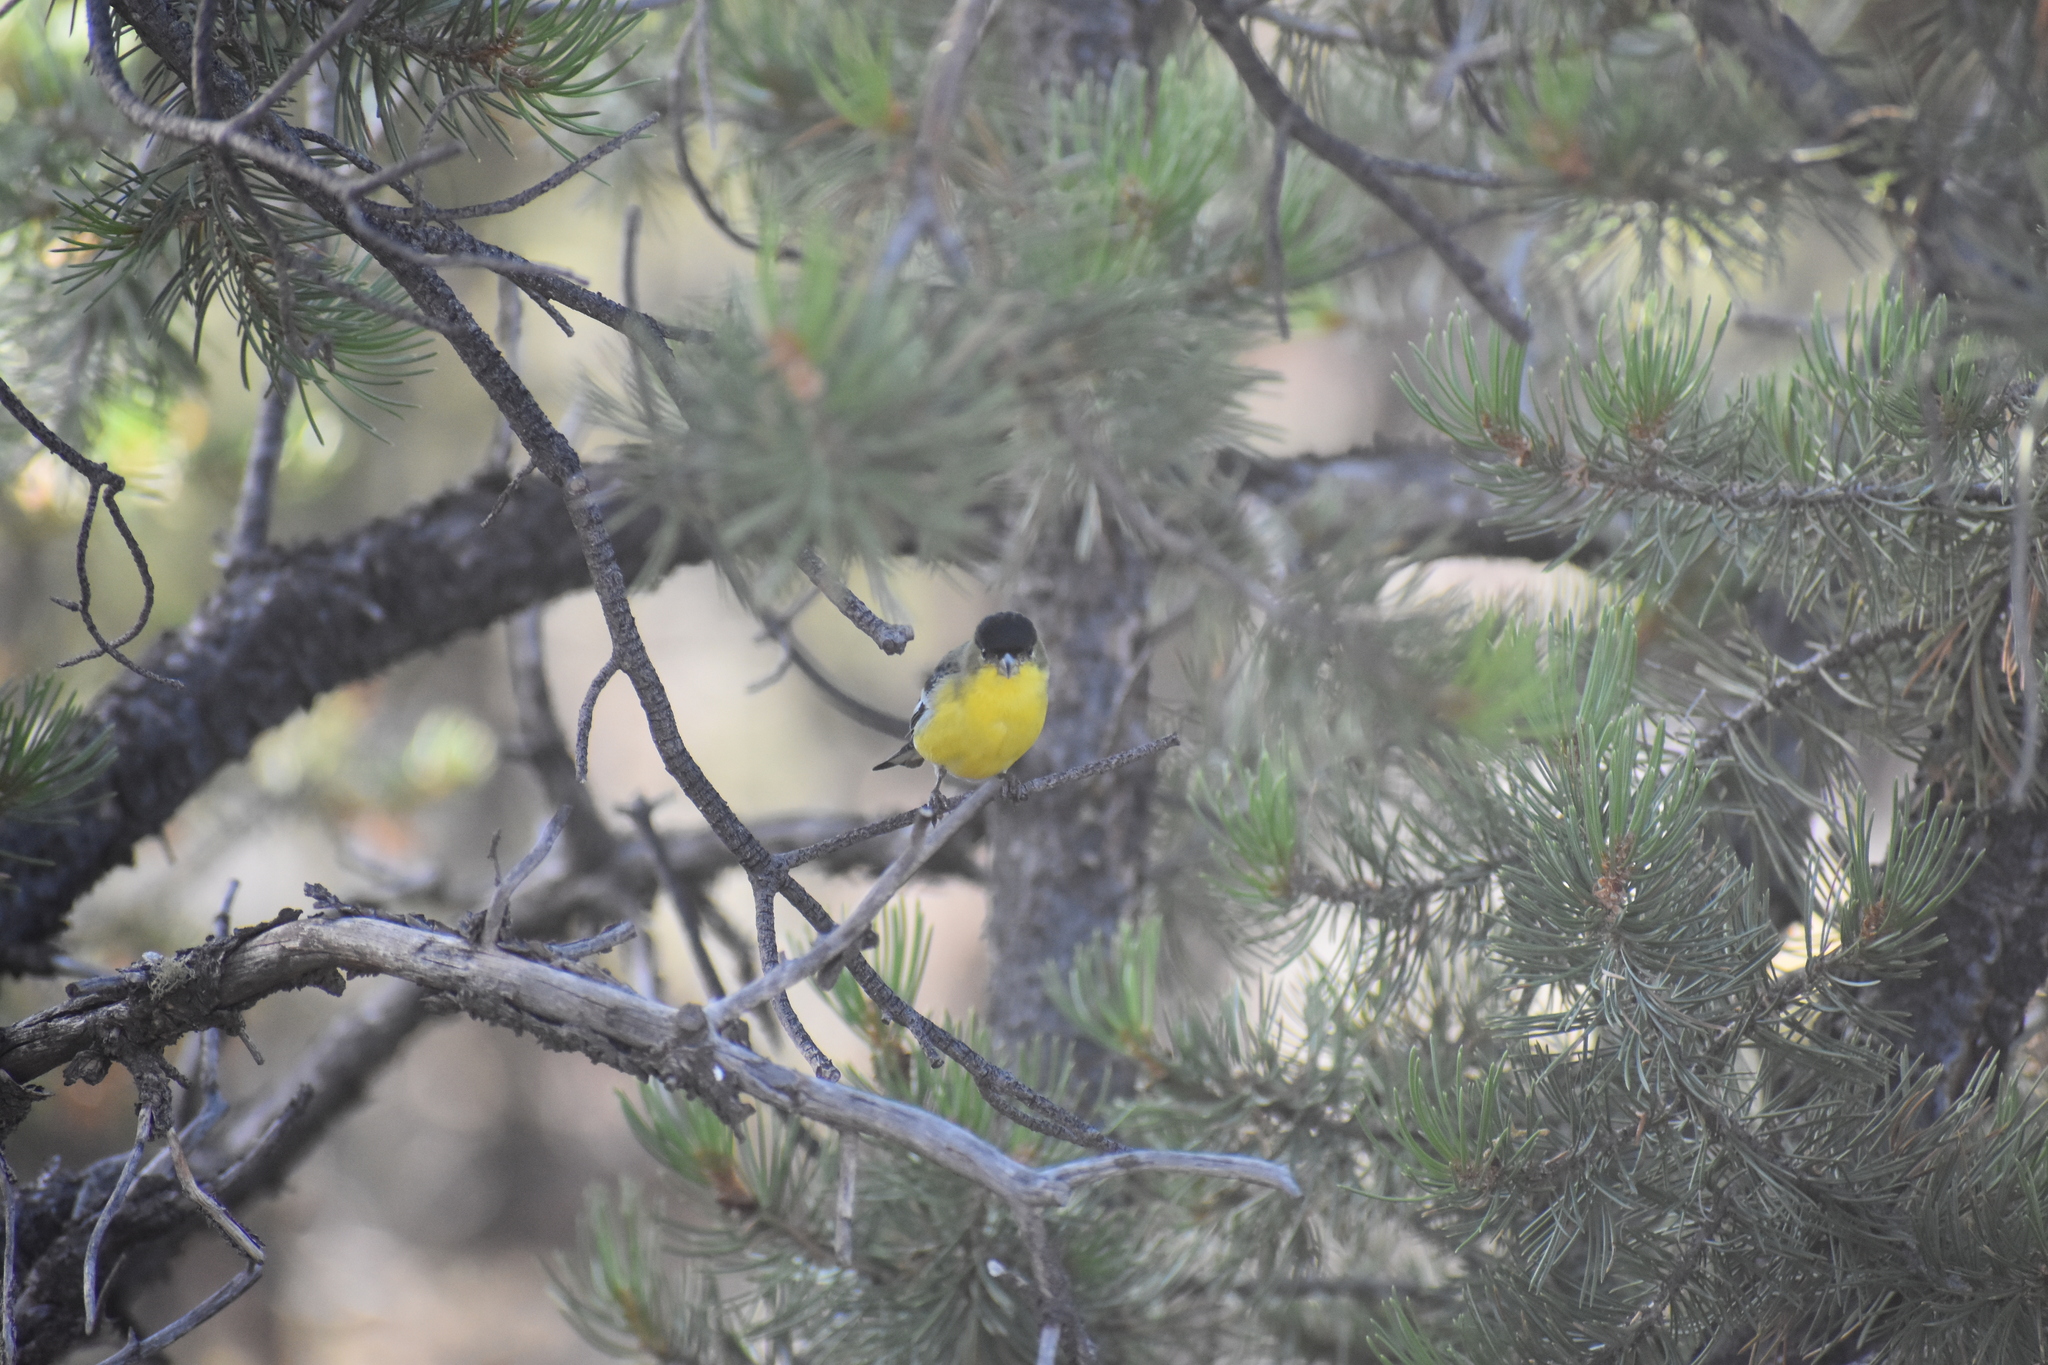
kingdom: Animalia
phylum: Chordata
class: Aves
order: Passeriformes
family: Fringillidae
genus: Spinus
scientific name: Spinus psaltria
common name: Lesser goldfinch
